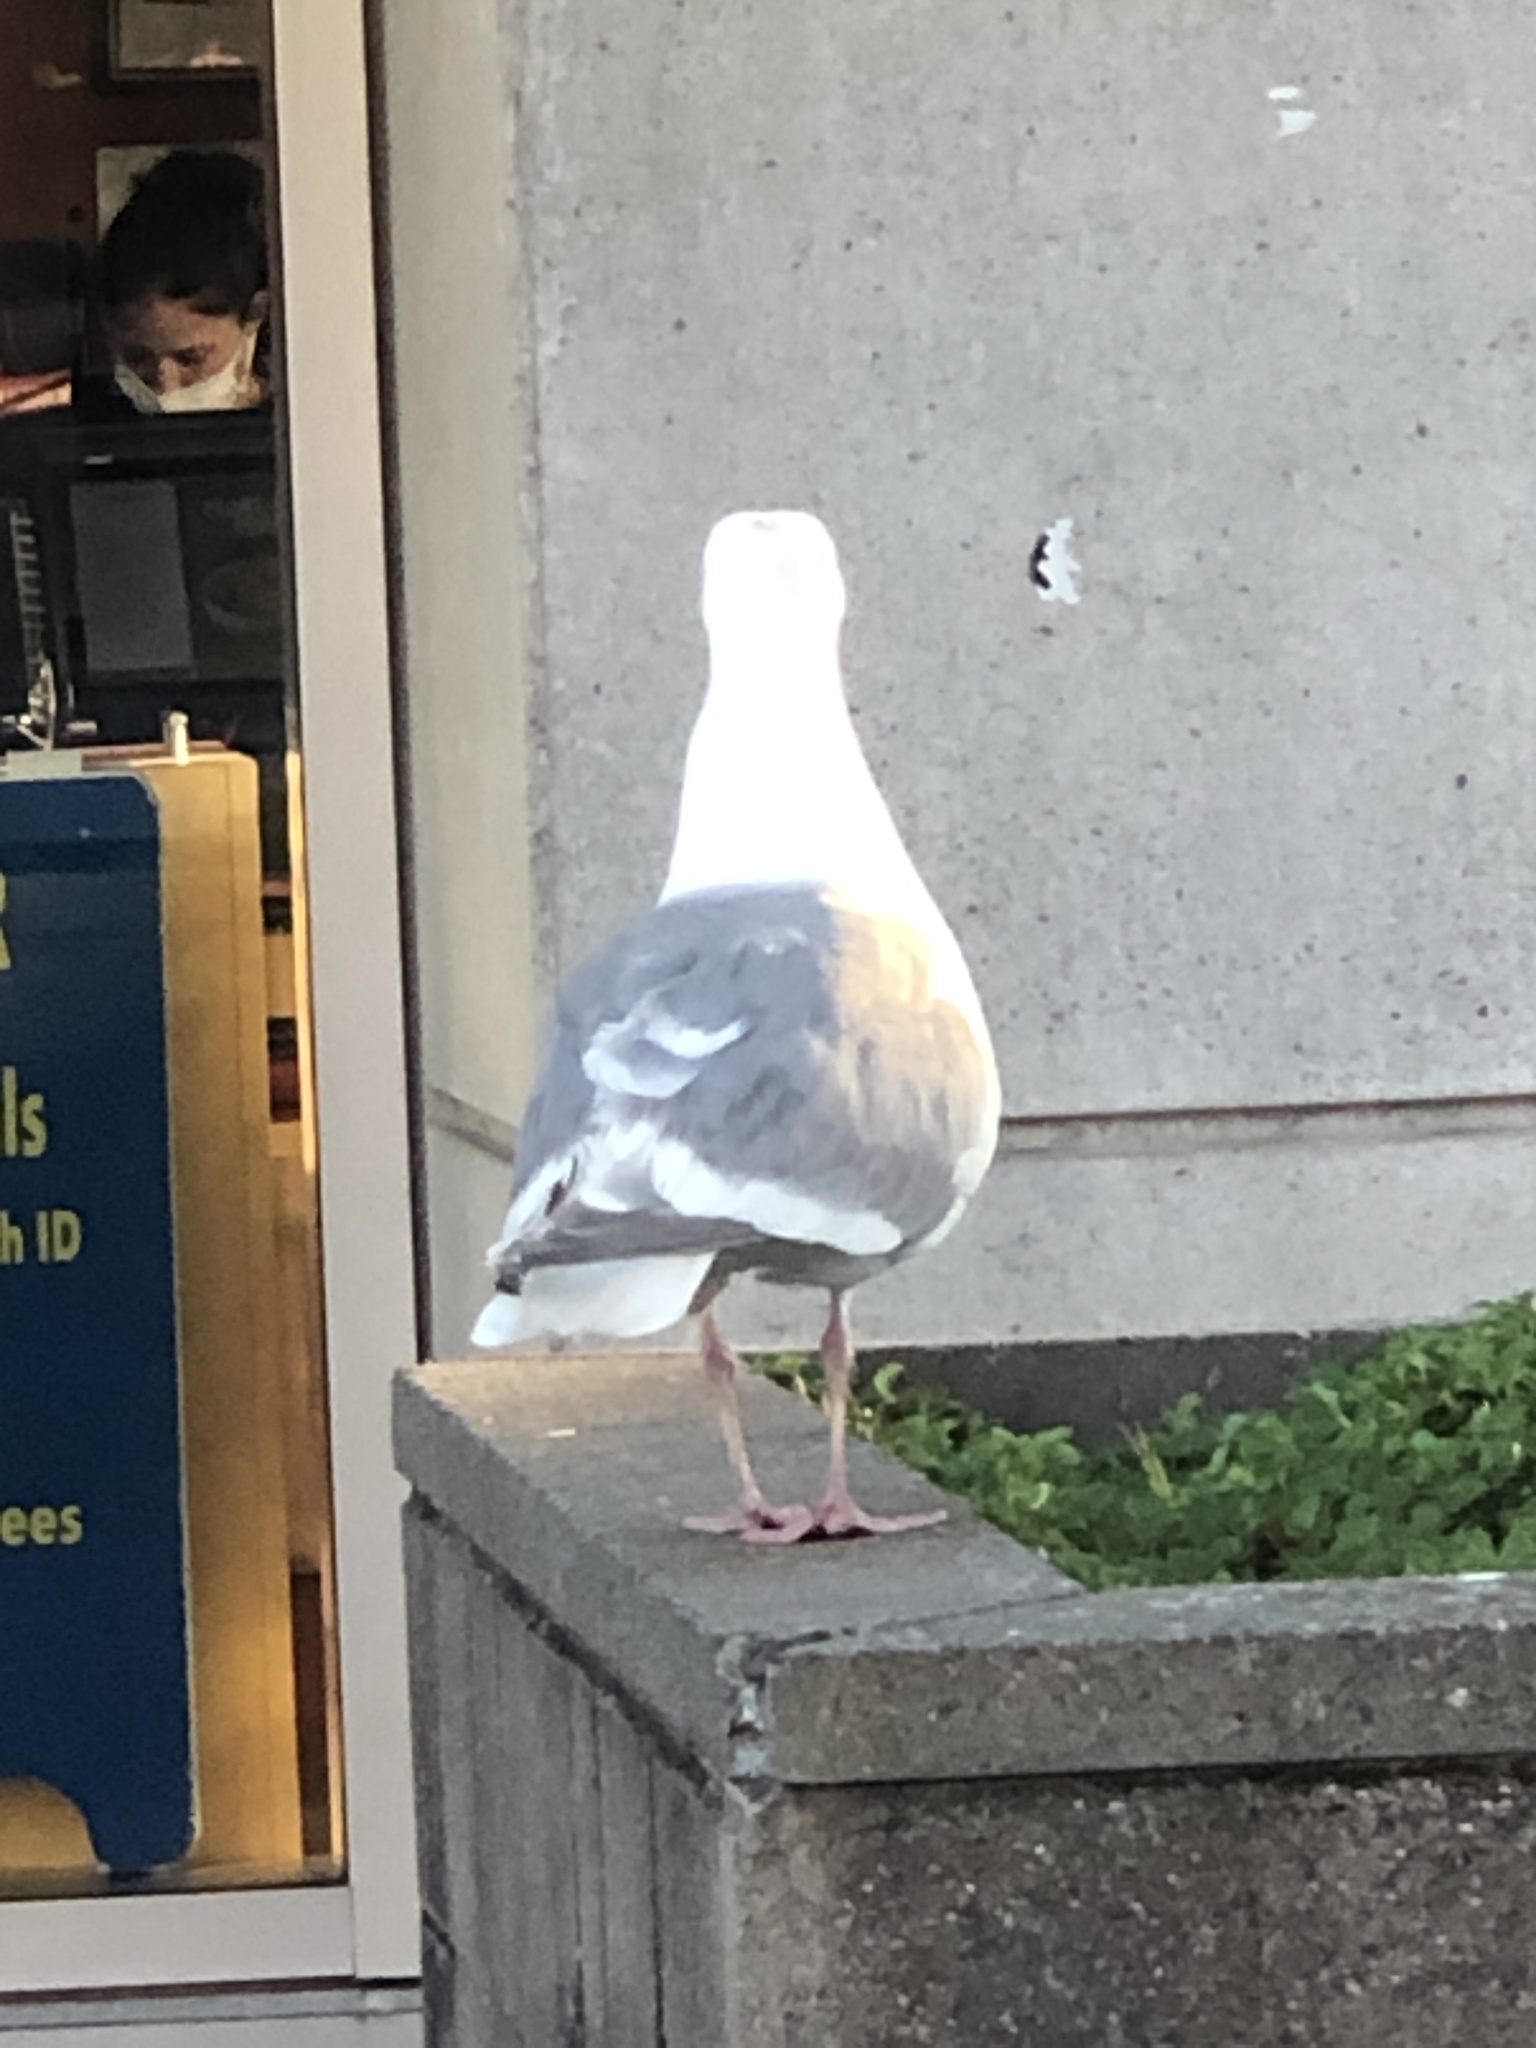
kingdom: Animalia
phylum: Chordata
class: Aves
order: Charadriiformes
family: Laridae
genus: Larus
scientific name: Larus
